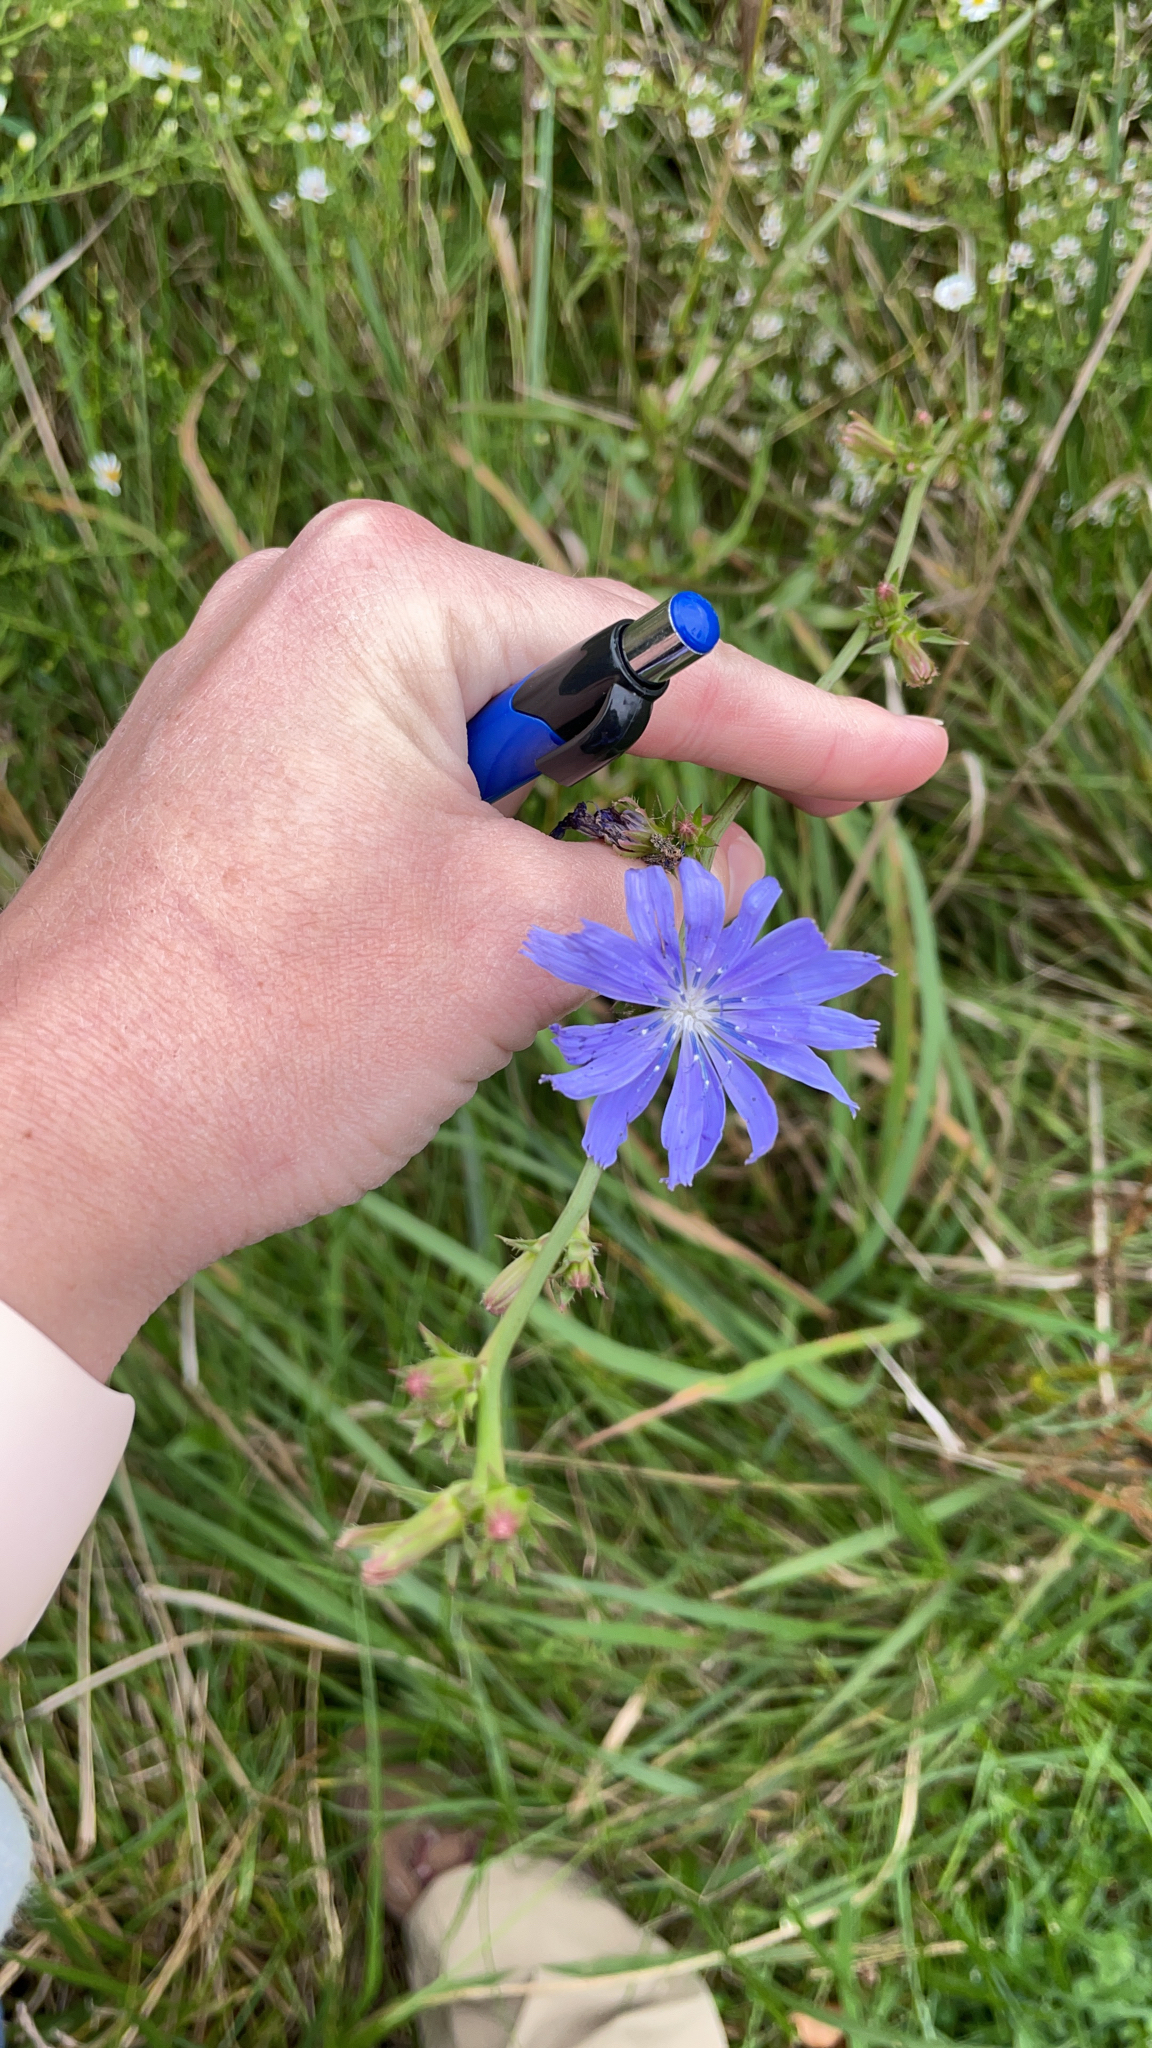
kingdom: Plantae
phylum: Tracheophyta
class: Magnoliopsida
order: Asterales
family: Asteraceae
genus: Cichorium
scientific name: Cichorium intybus
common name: Chicory
